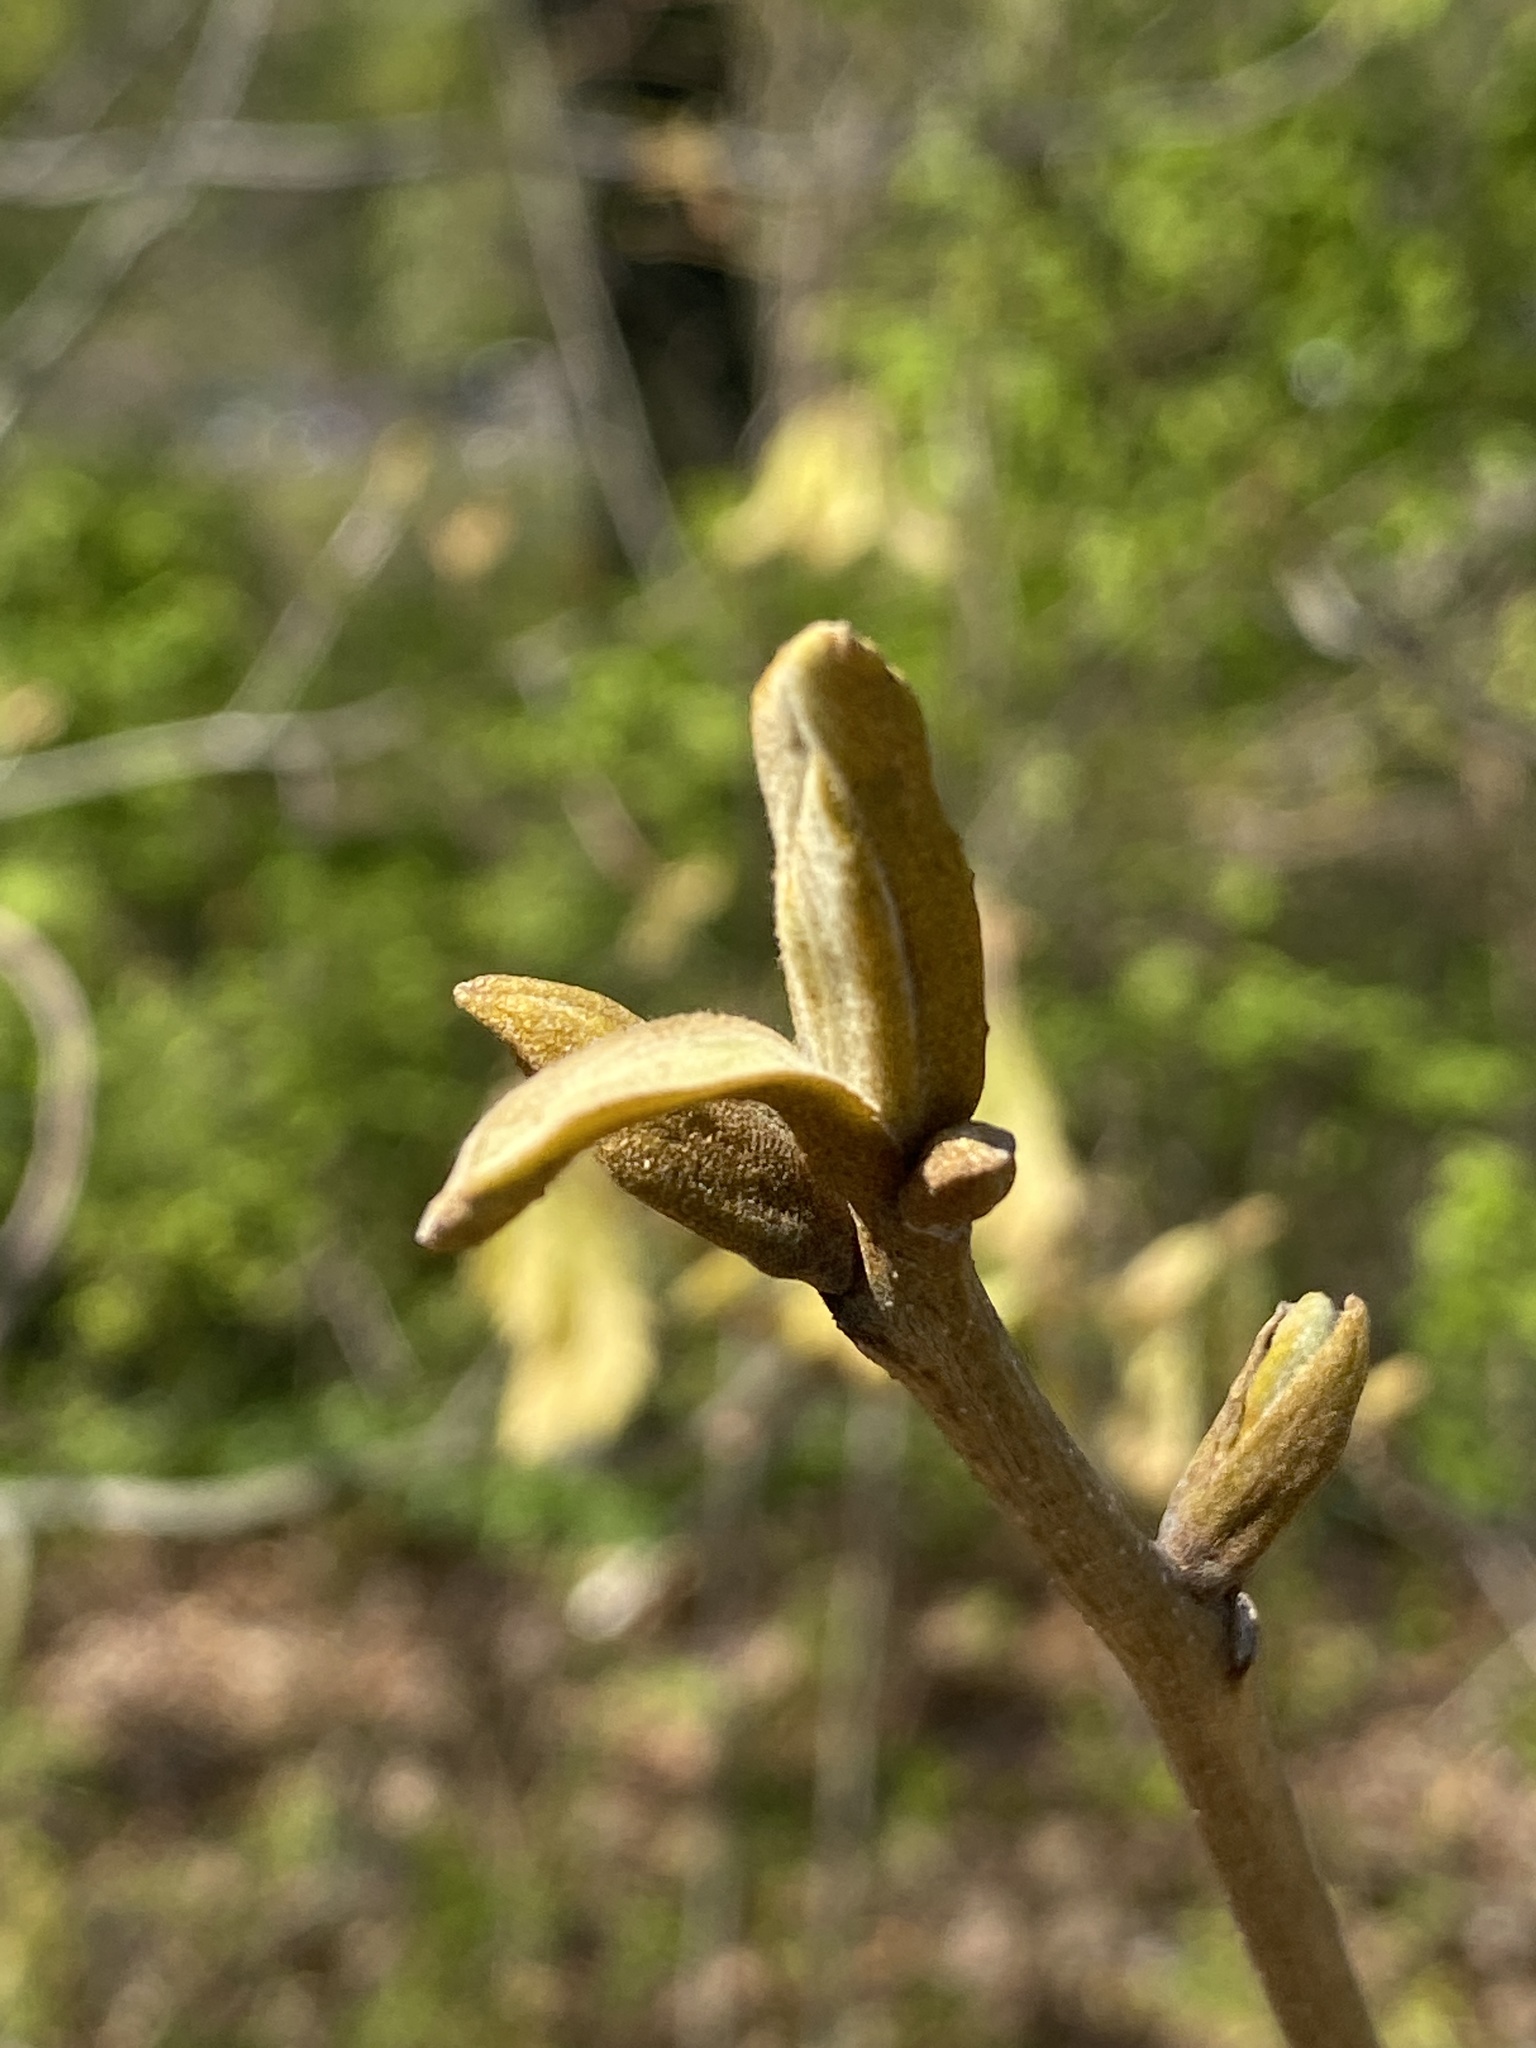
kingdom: Plantae
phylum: Tracheophyta
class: Magnoliopsida
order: Fagales
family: Juglandaceae
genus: Carya
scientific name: Carya cordiformis
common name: Bitternut hickory
